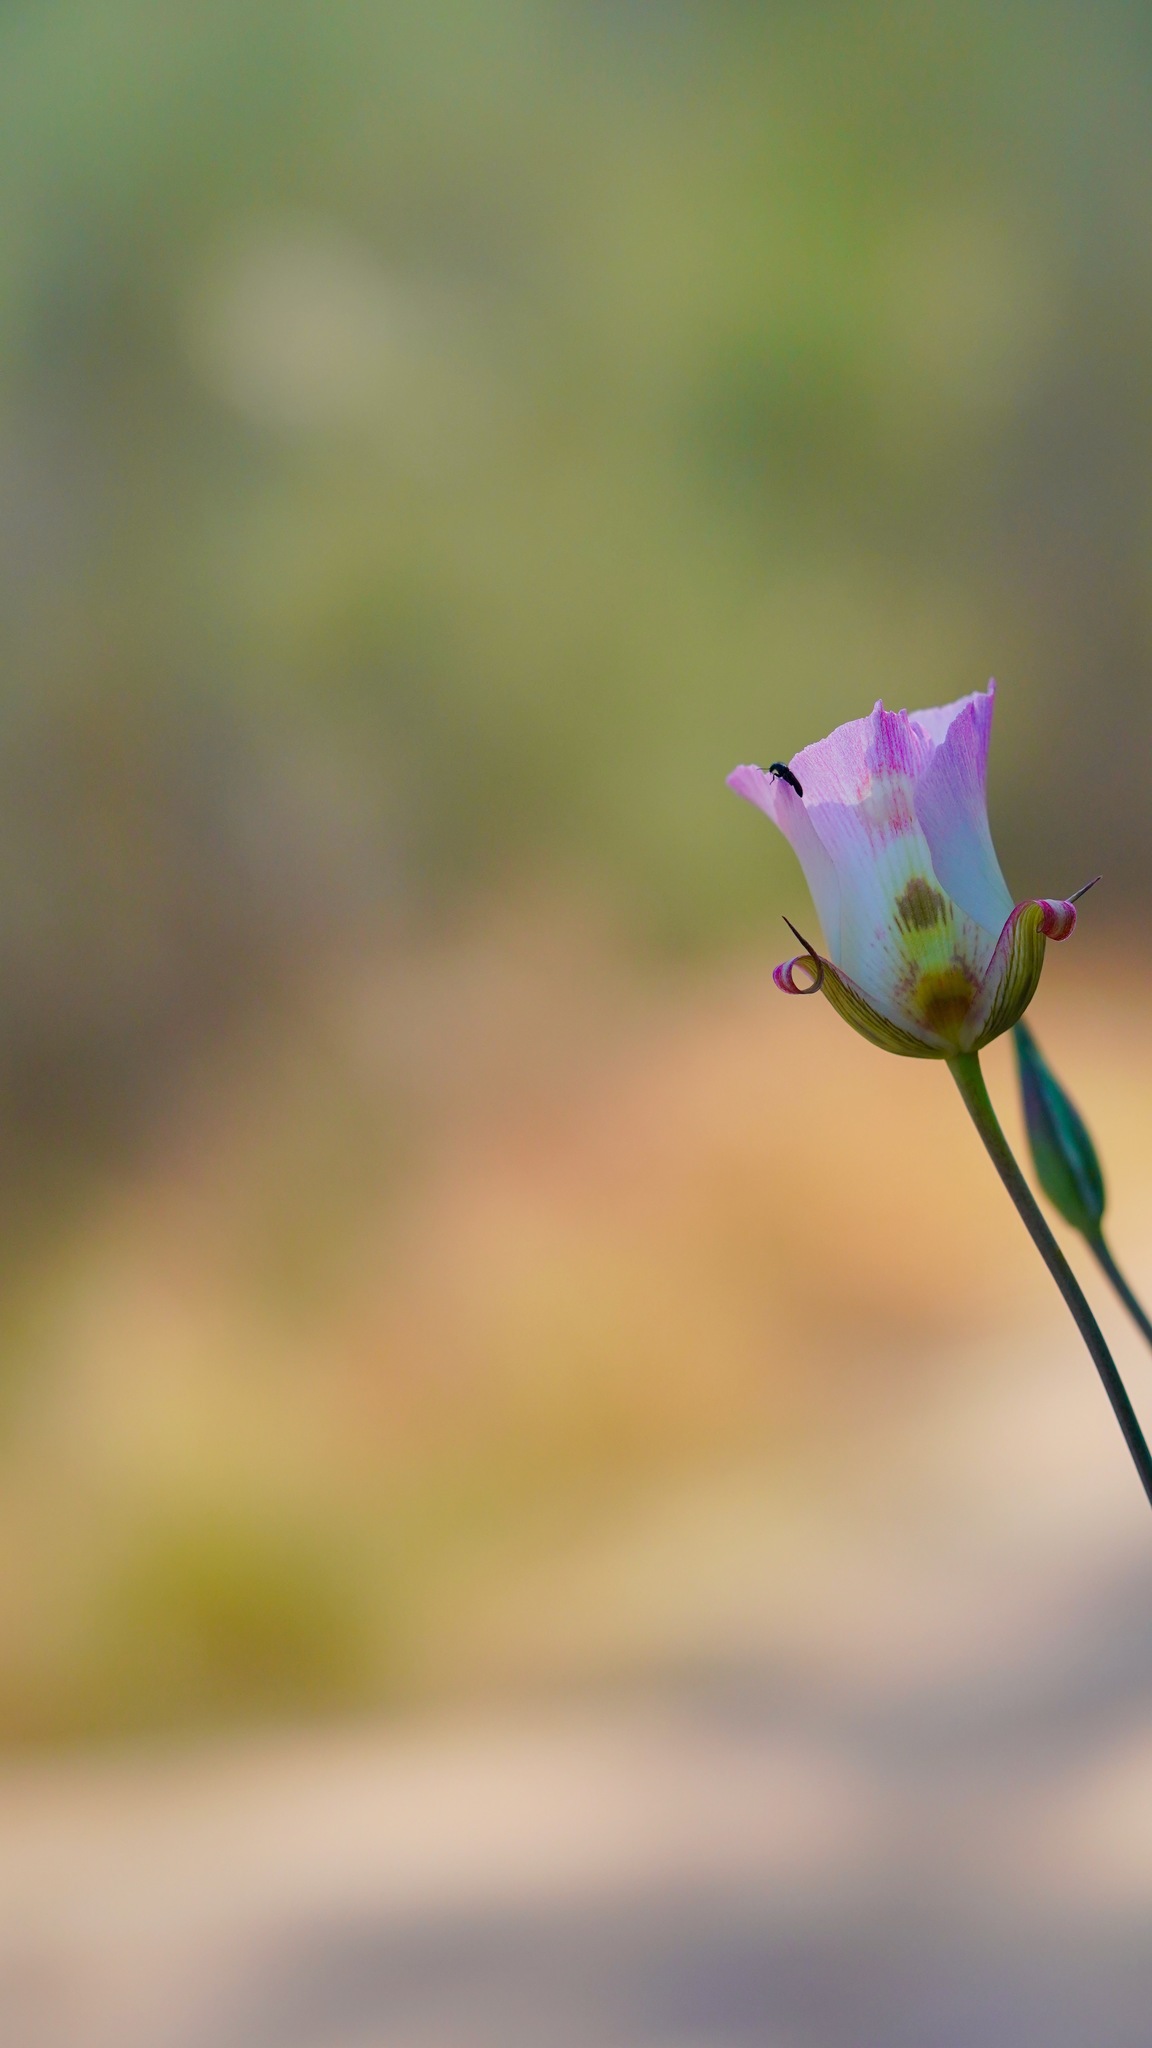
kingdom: Plantae
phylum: Tracheophyta
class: Liliopsida
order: Liliales
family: Liliaceae
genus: Calochortus
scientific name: Calochortus venustus
